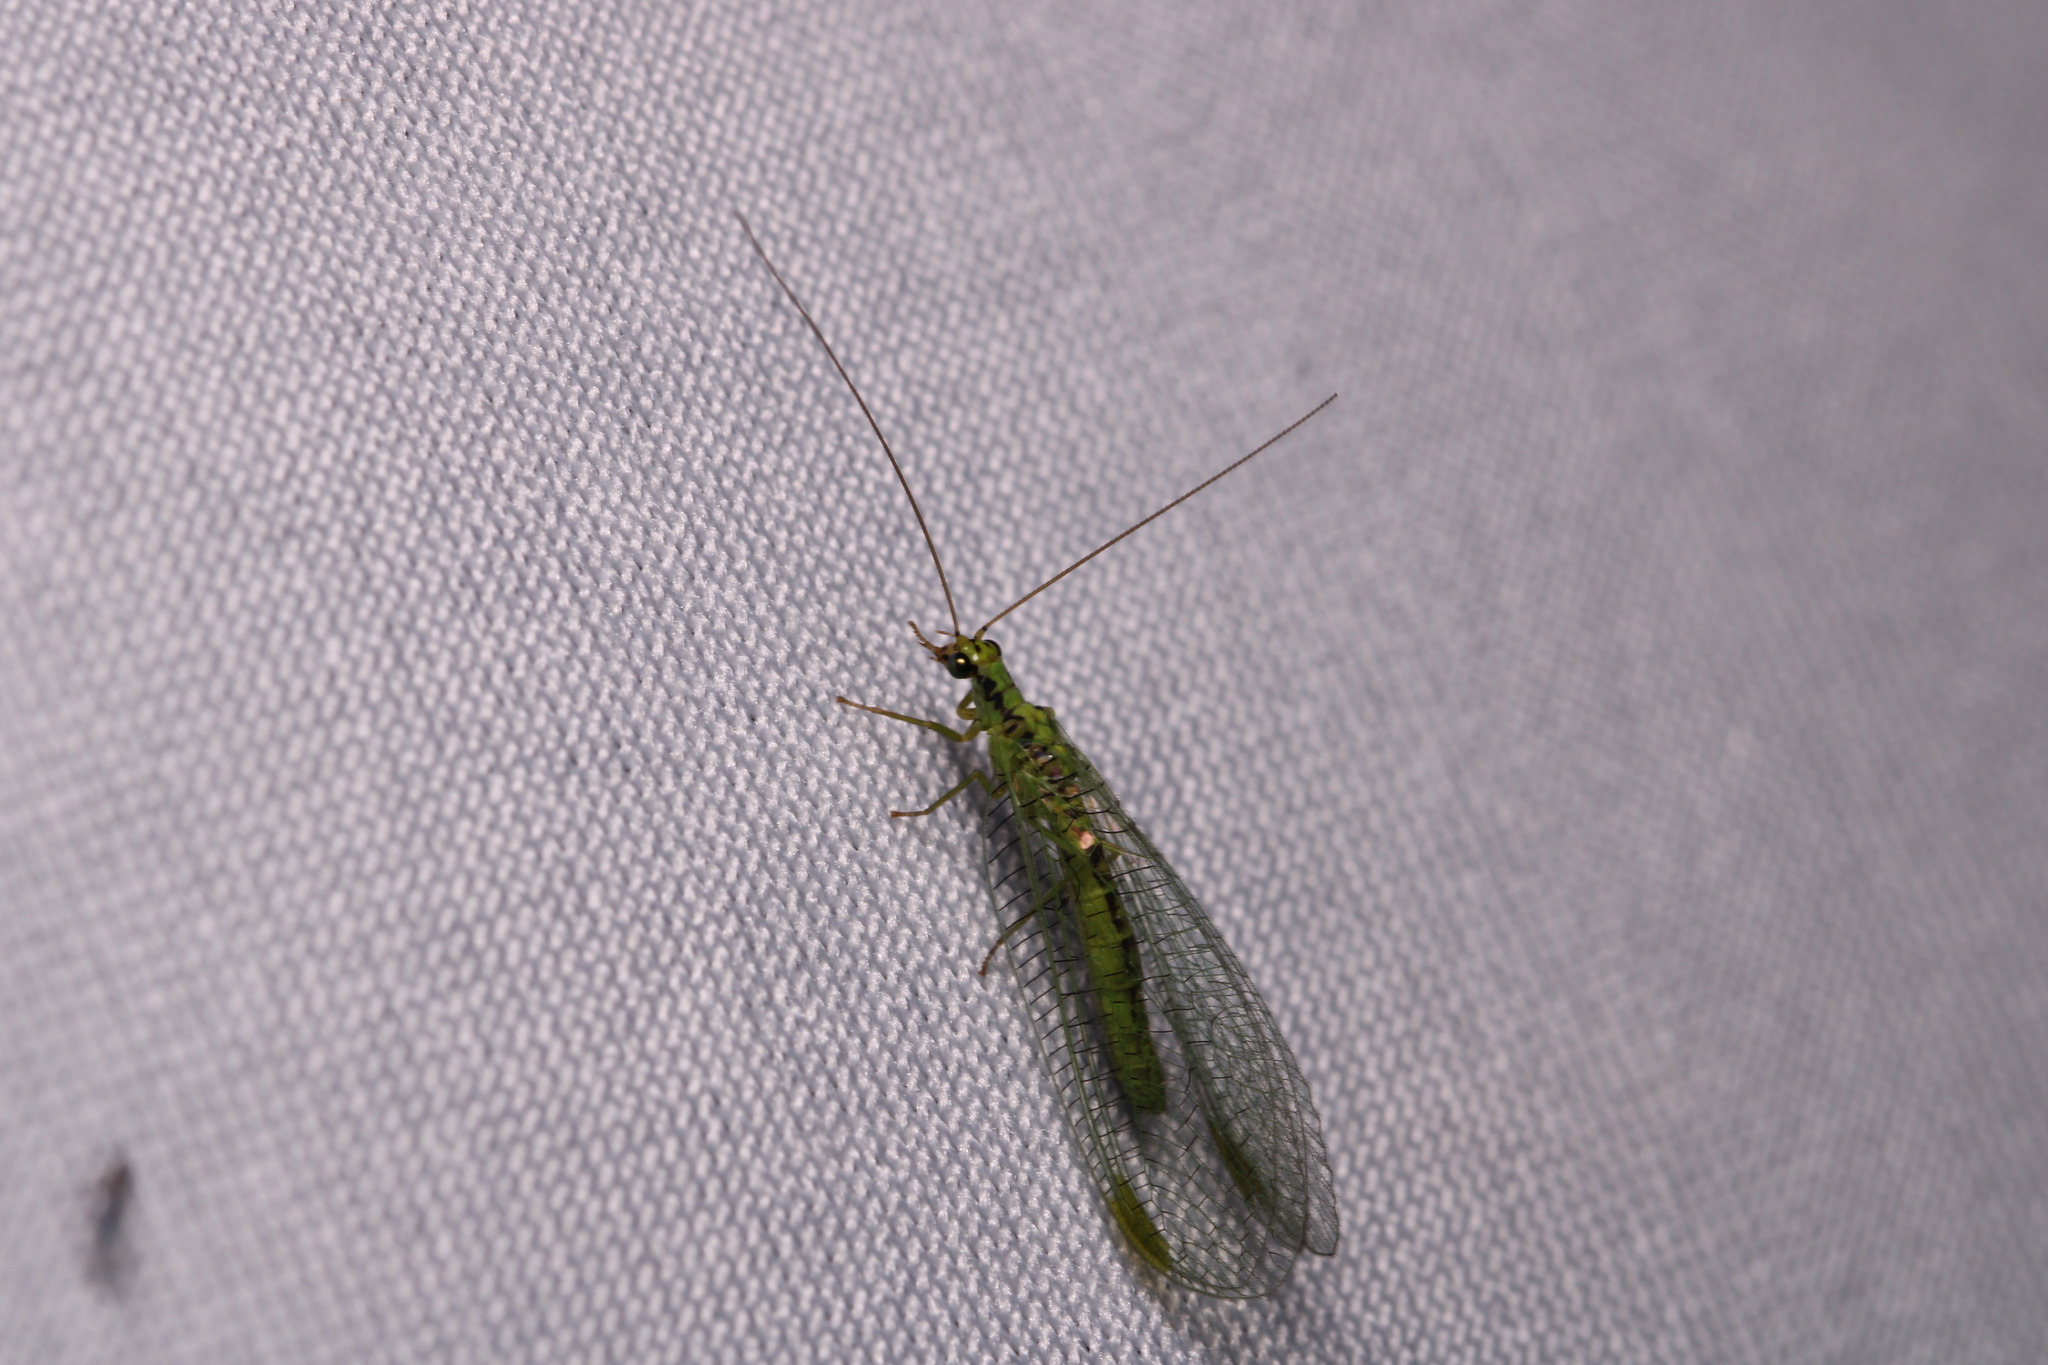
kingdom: Animalia
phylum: Arthropoda
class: Insecta
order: Neuroptera
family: Chrysopidae
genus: Chrysopa
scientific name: Chrysopa walkeri
